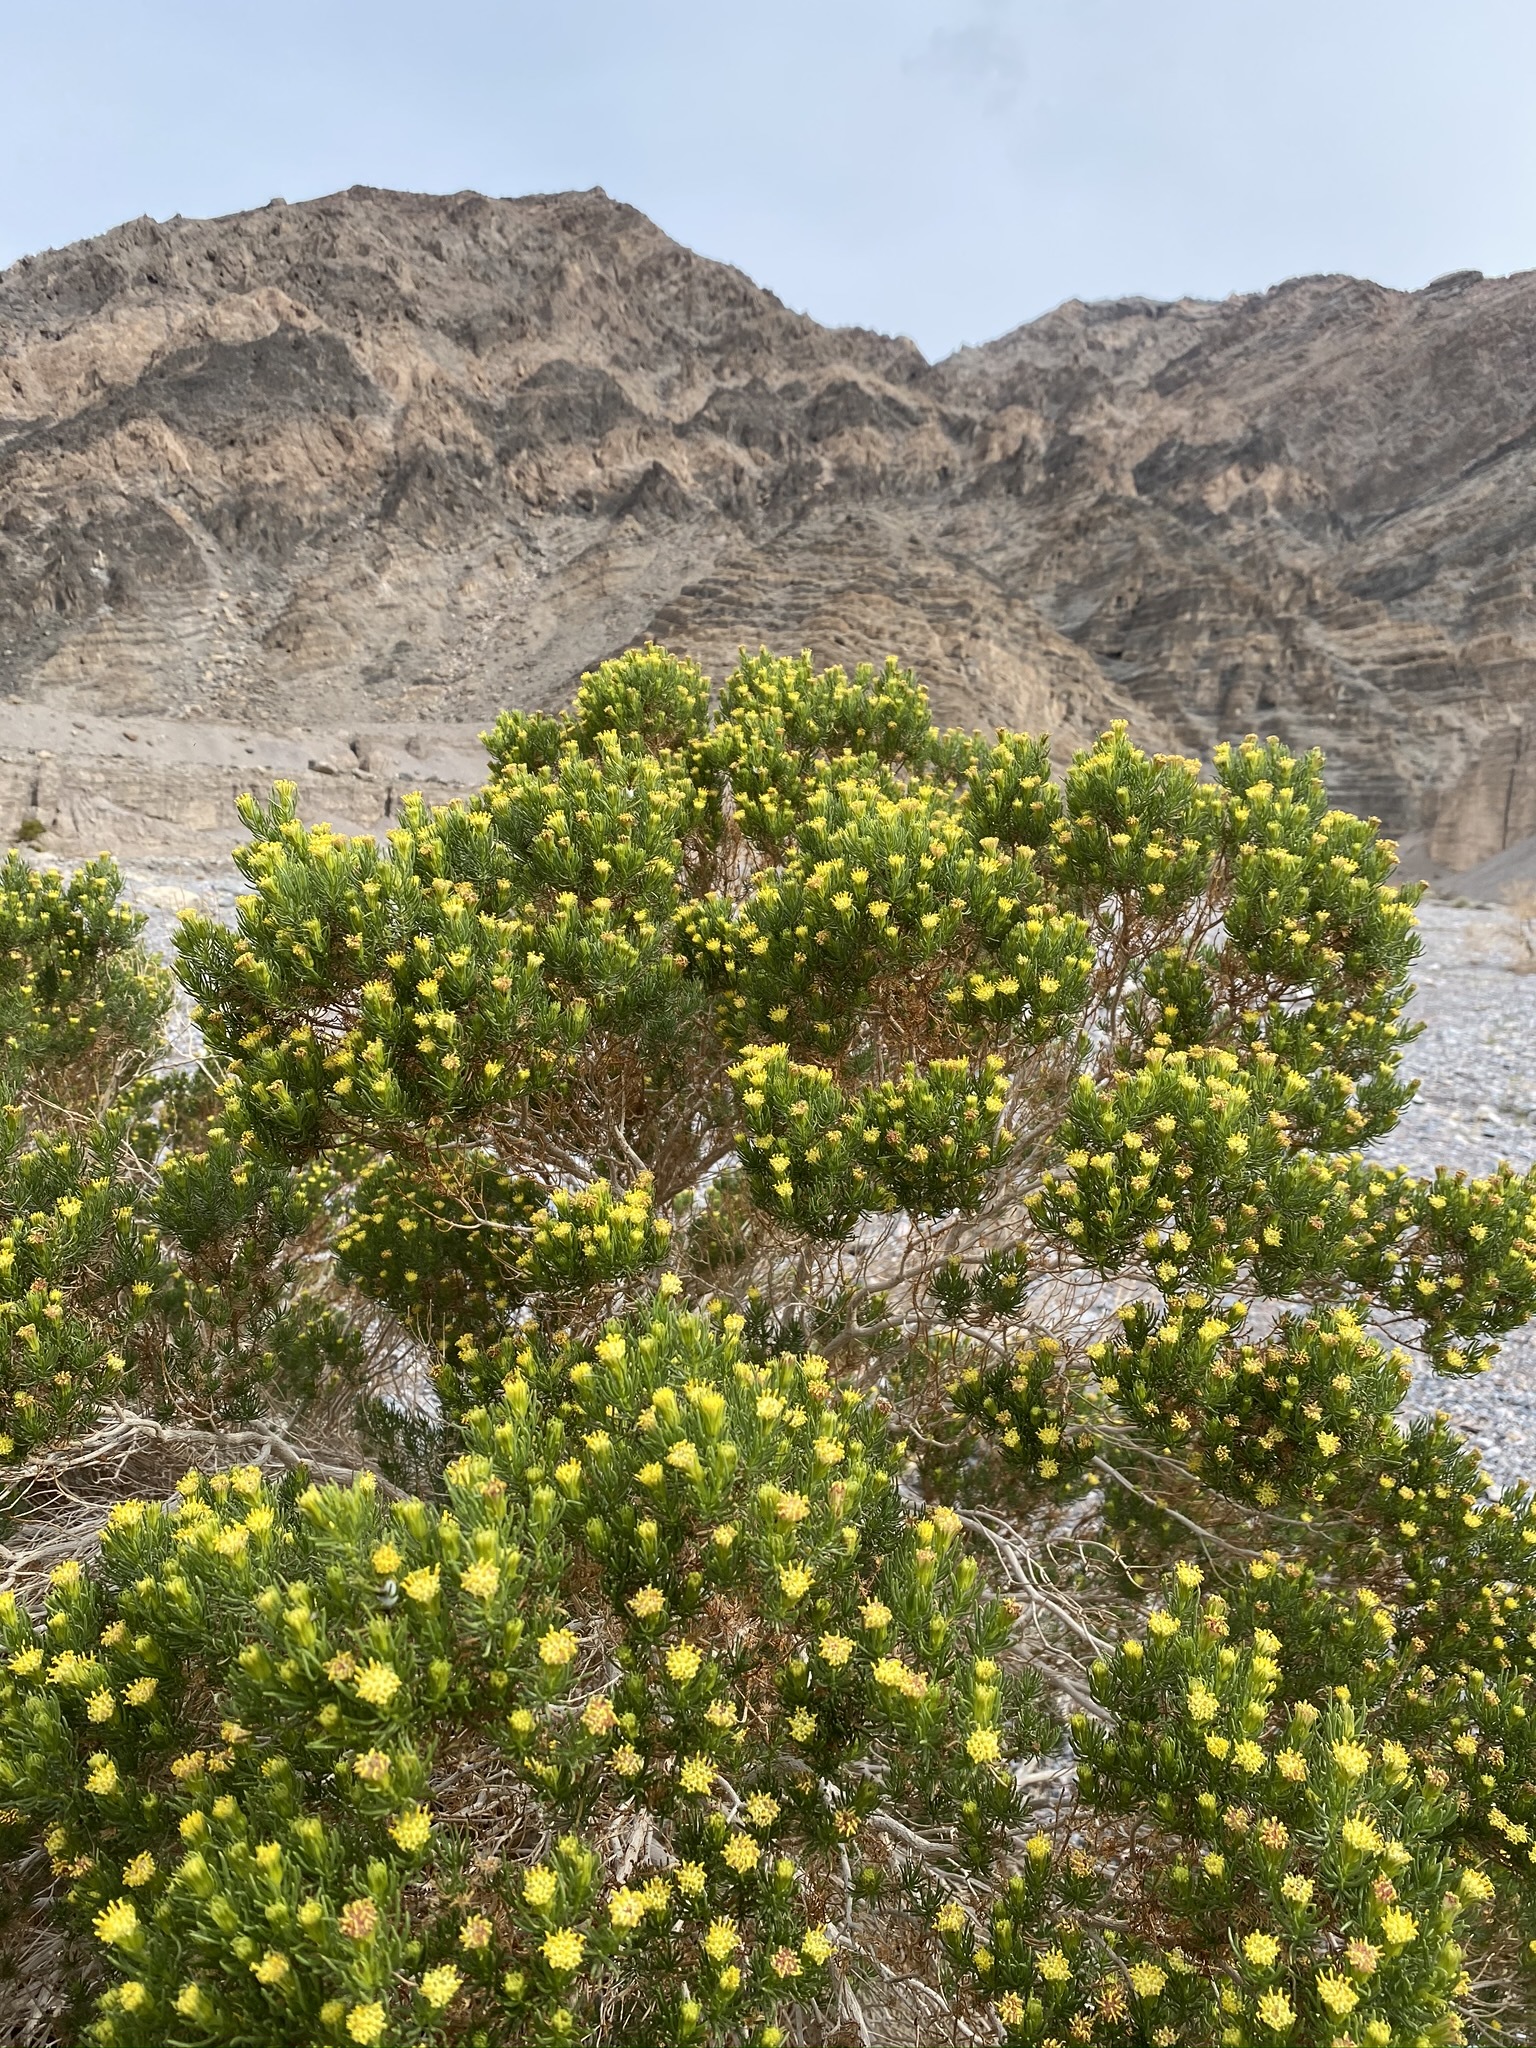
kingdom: Plantae
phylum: Tracheophyta
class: Magnoliopsida
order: Asterales
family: Asteraceae
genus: Peucephyllum
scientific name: Peucephyllum schottii
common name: Pygmy-cedar
